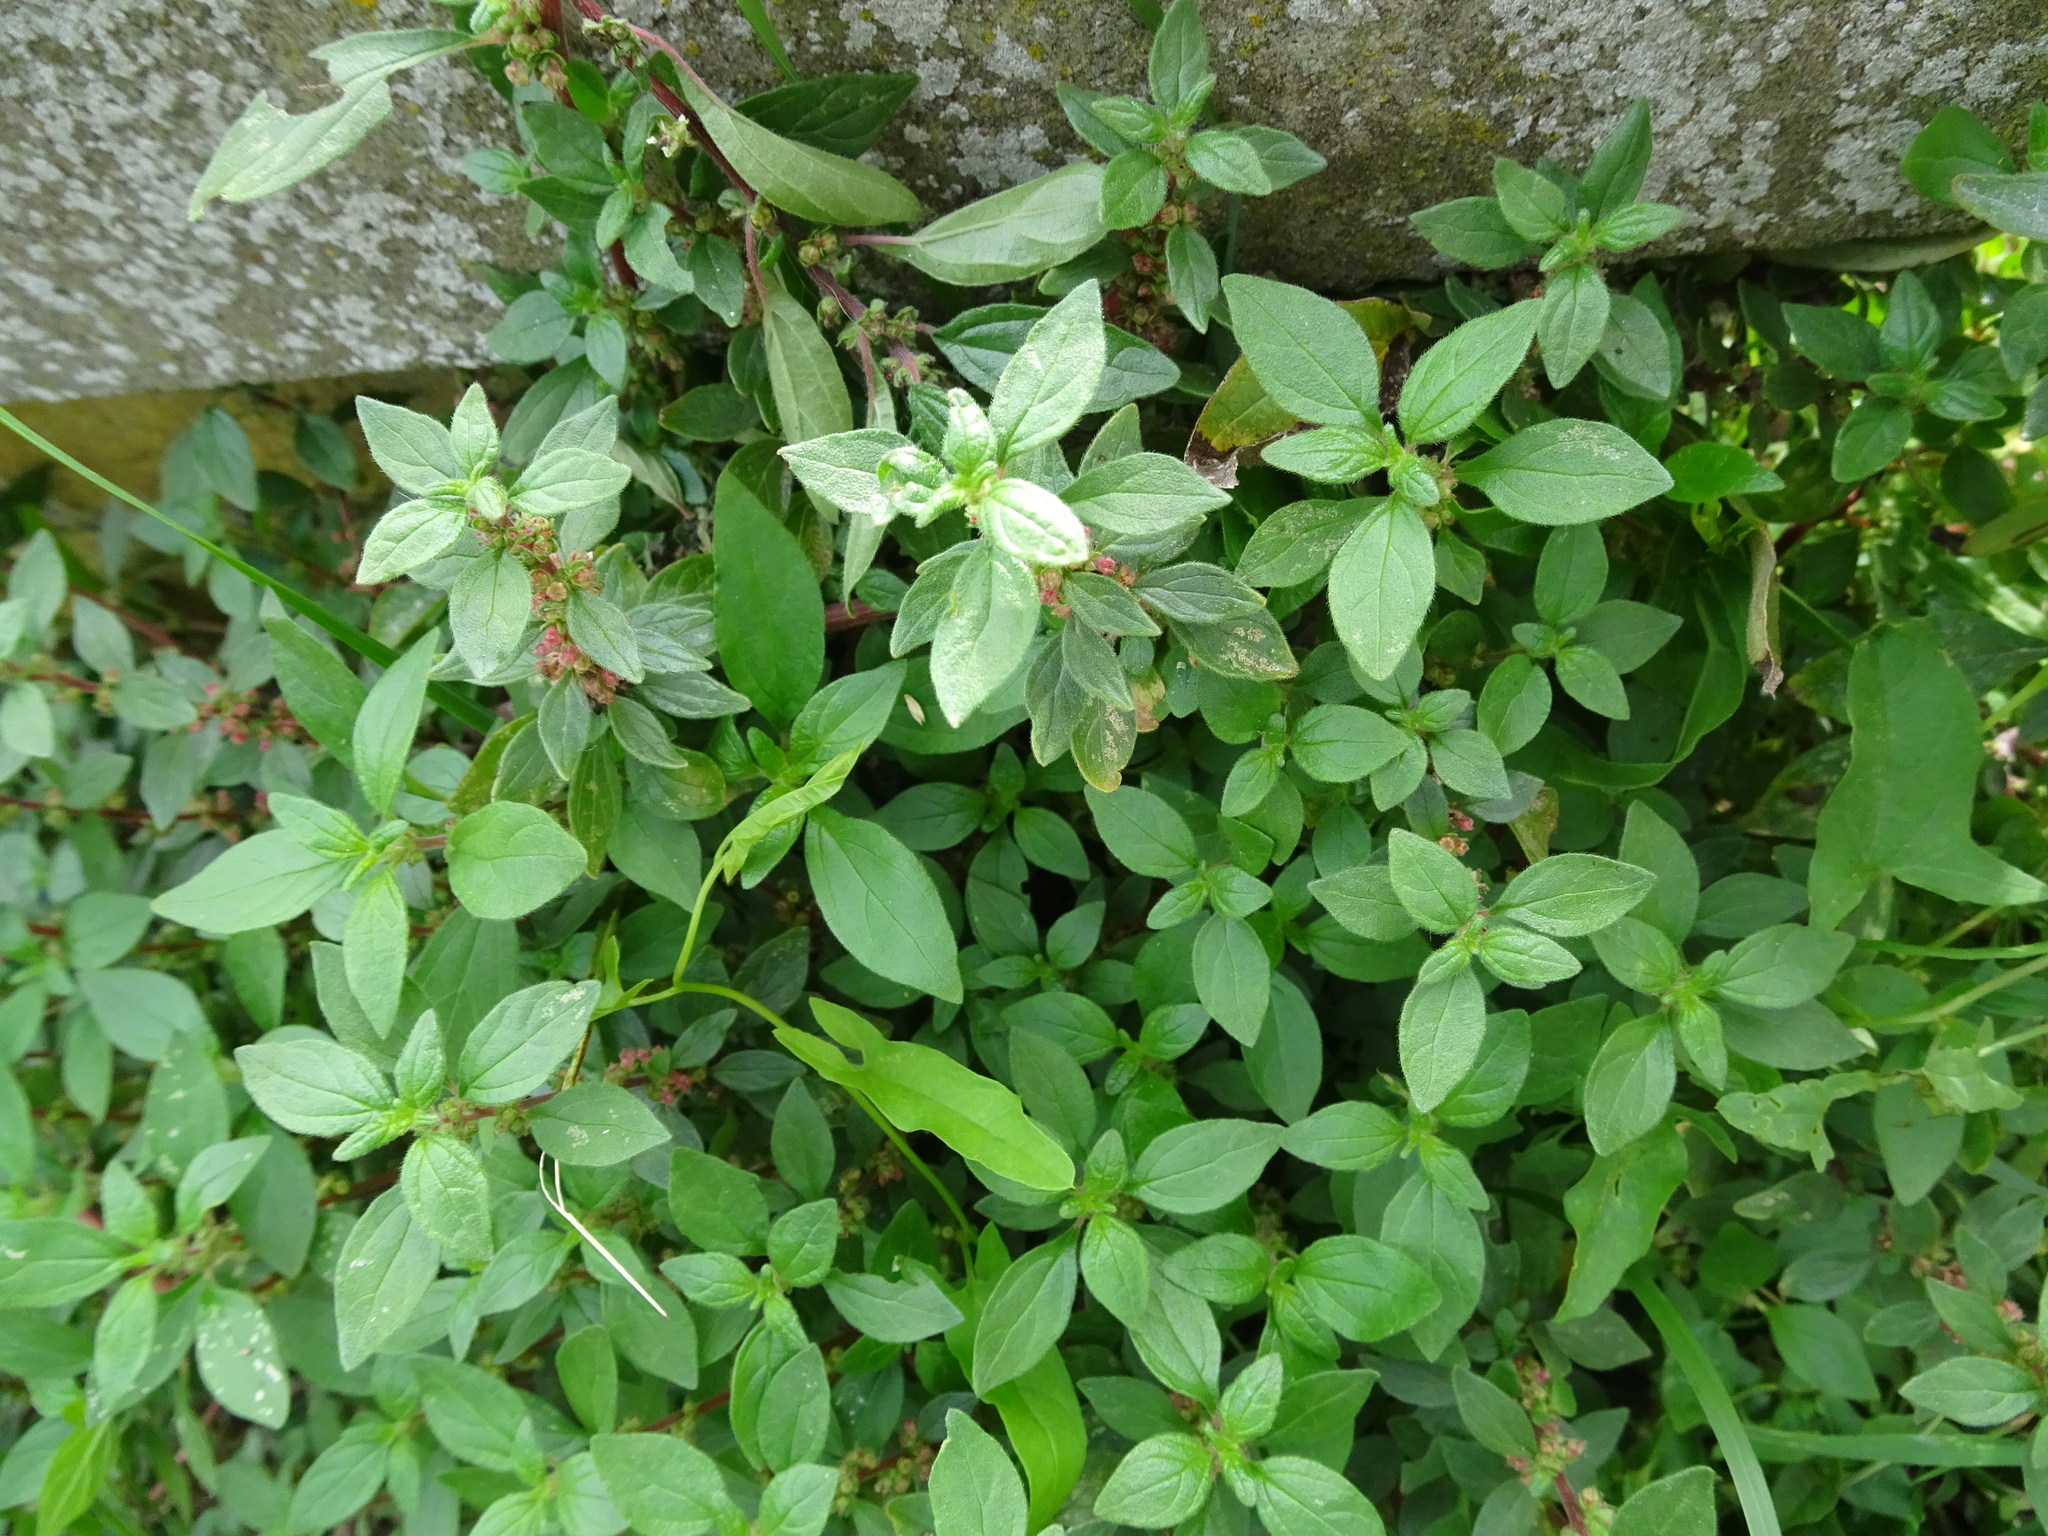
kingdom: Plantae
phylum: Tracheophyta
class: Magnoliopsida
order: Rosales
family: Urticaceae
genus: Parietaria
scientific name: Parietaria judaica
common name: Pellitory-of-the-wall
